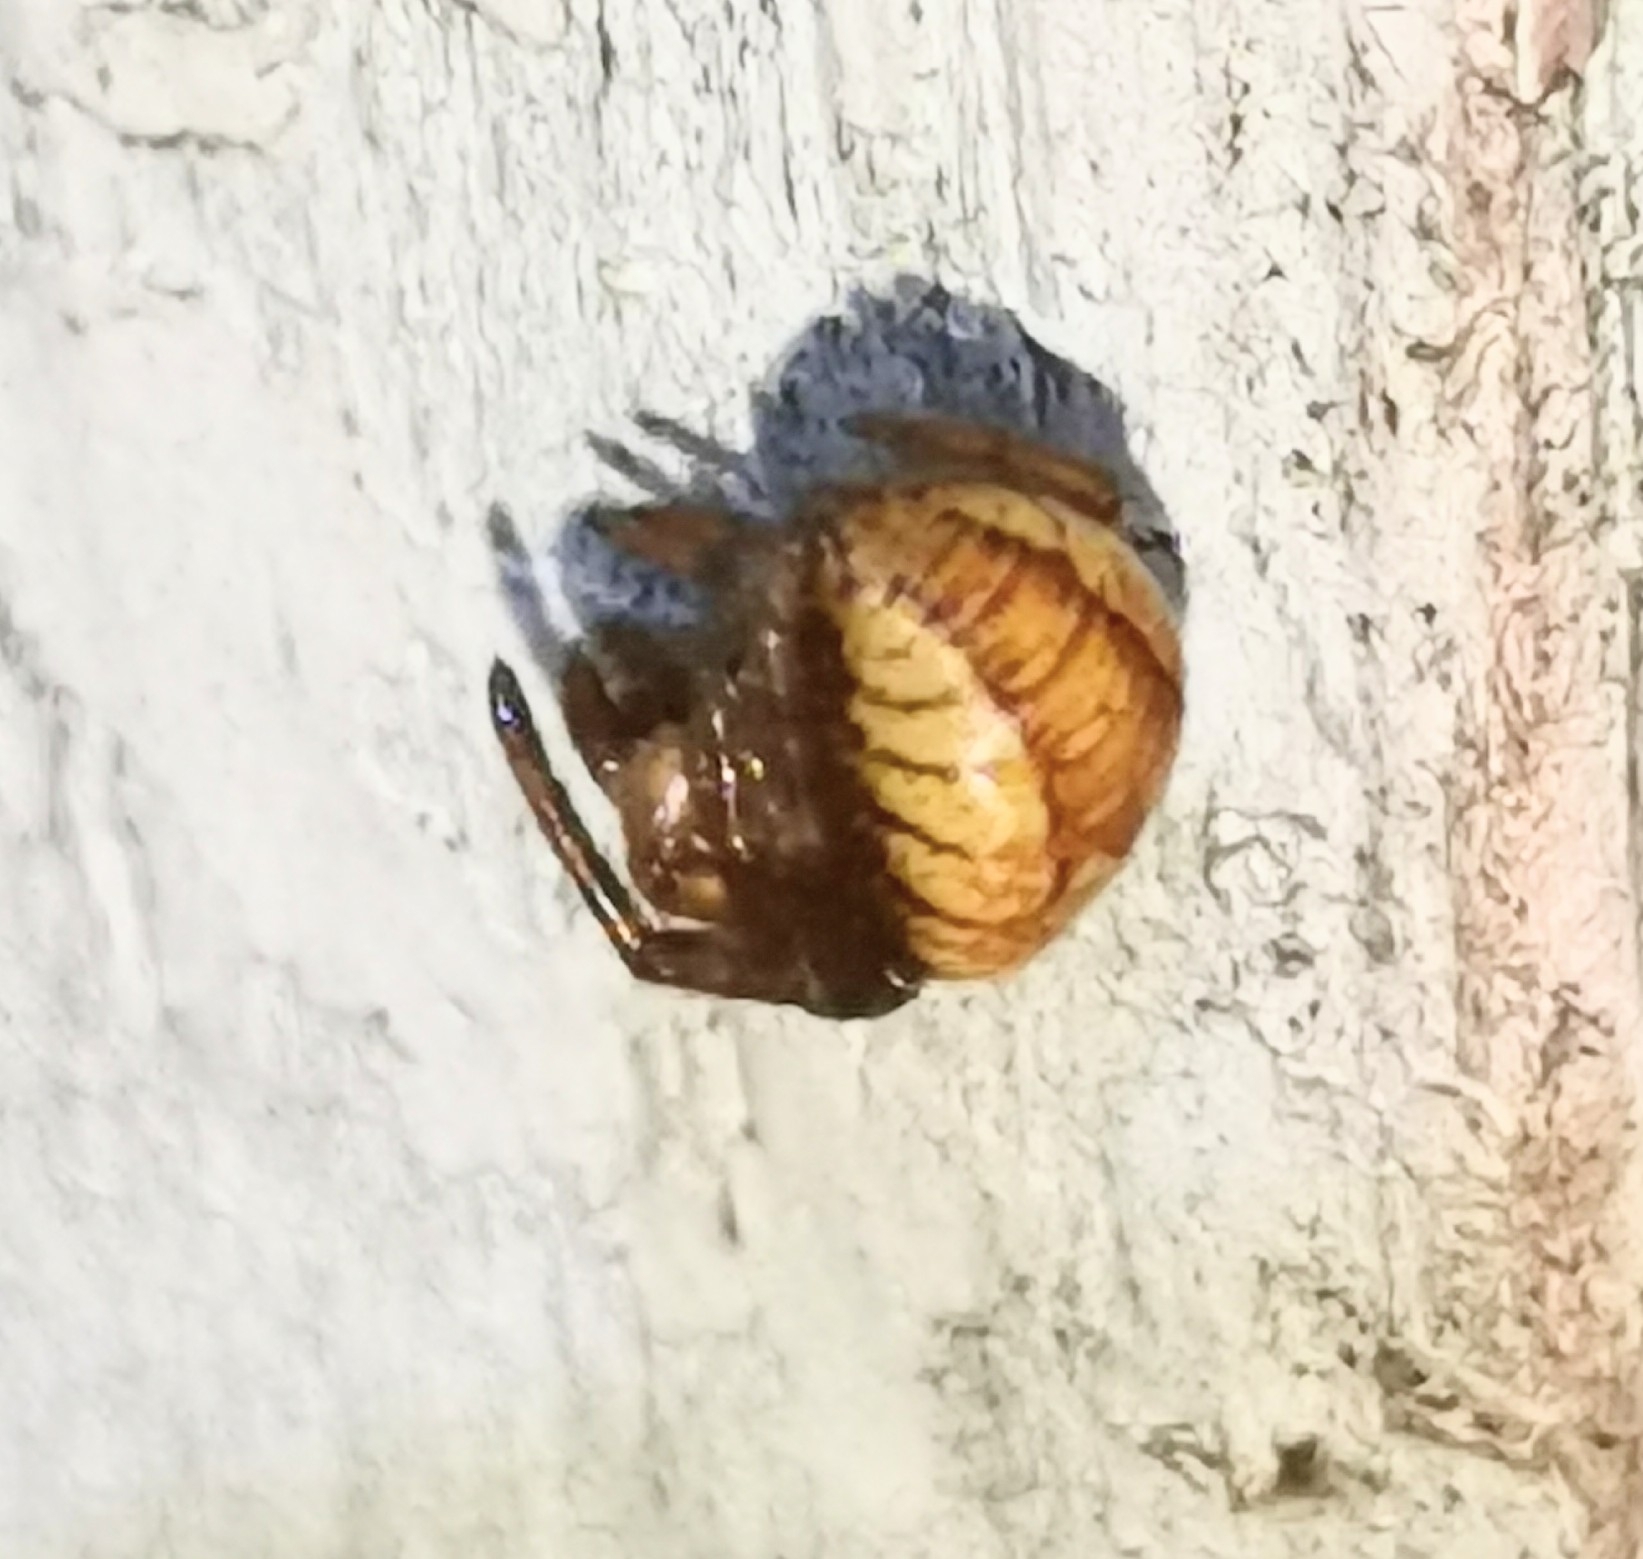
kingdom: Animalia
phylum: Arthropoda
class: Arachnida
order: Araneae
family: Araneidae
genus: Araneus
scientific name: Araneus alsine
